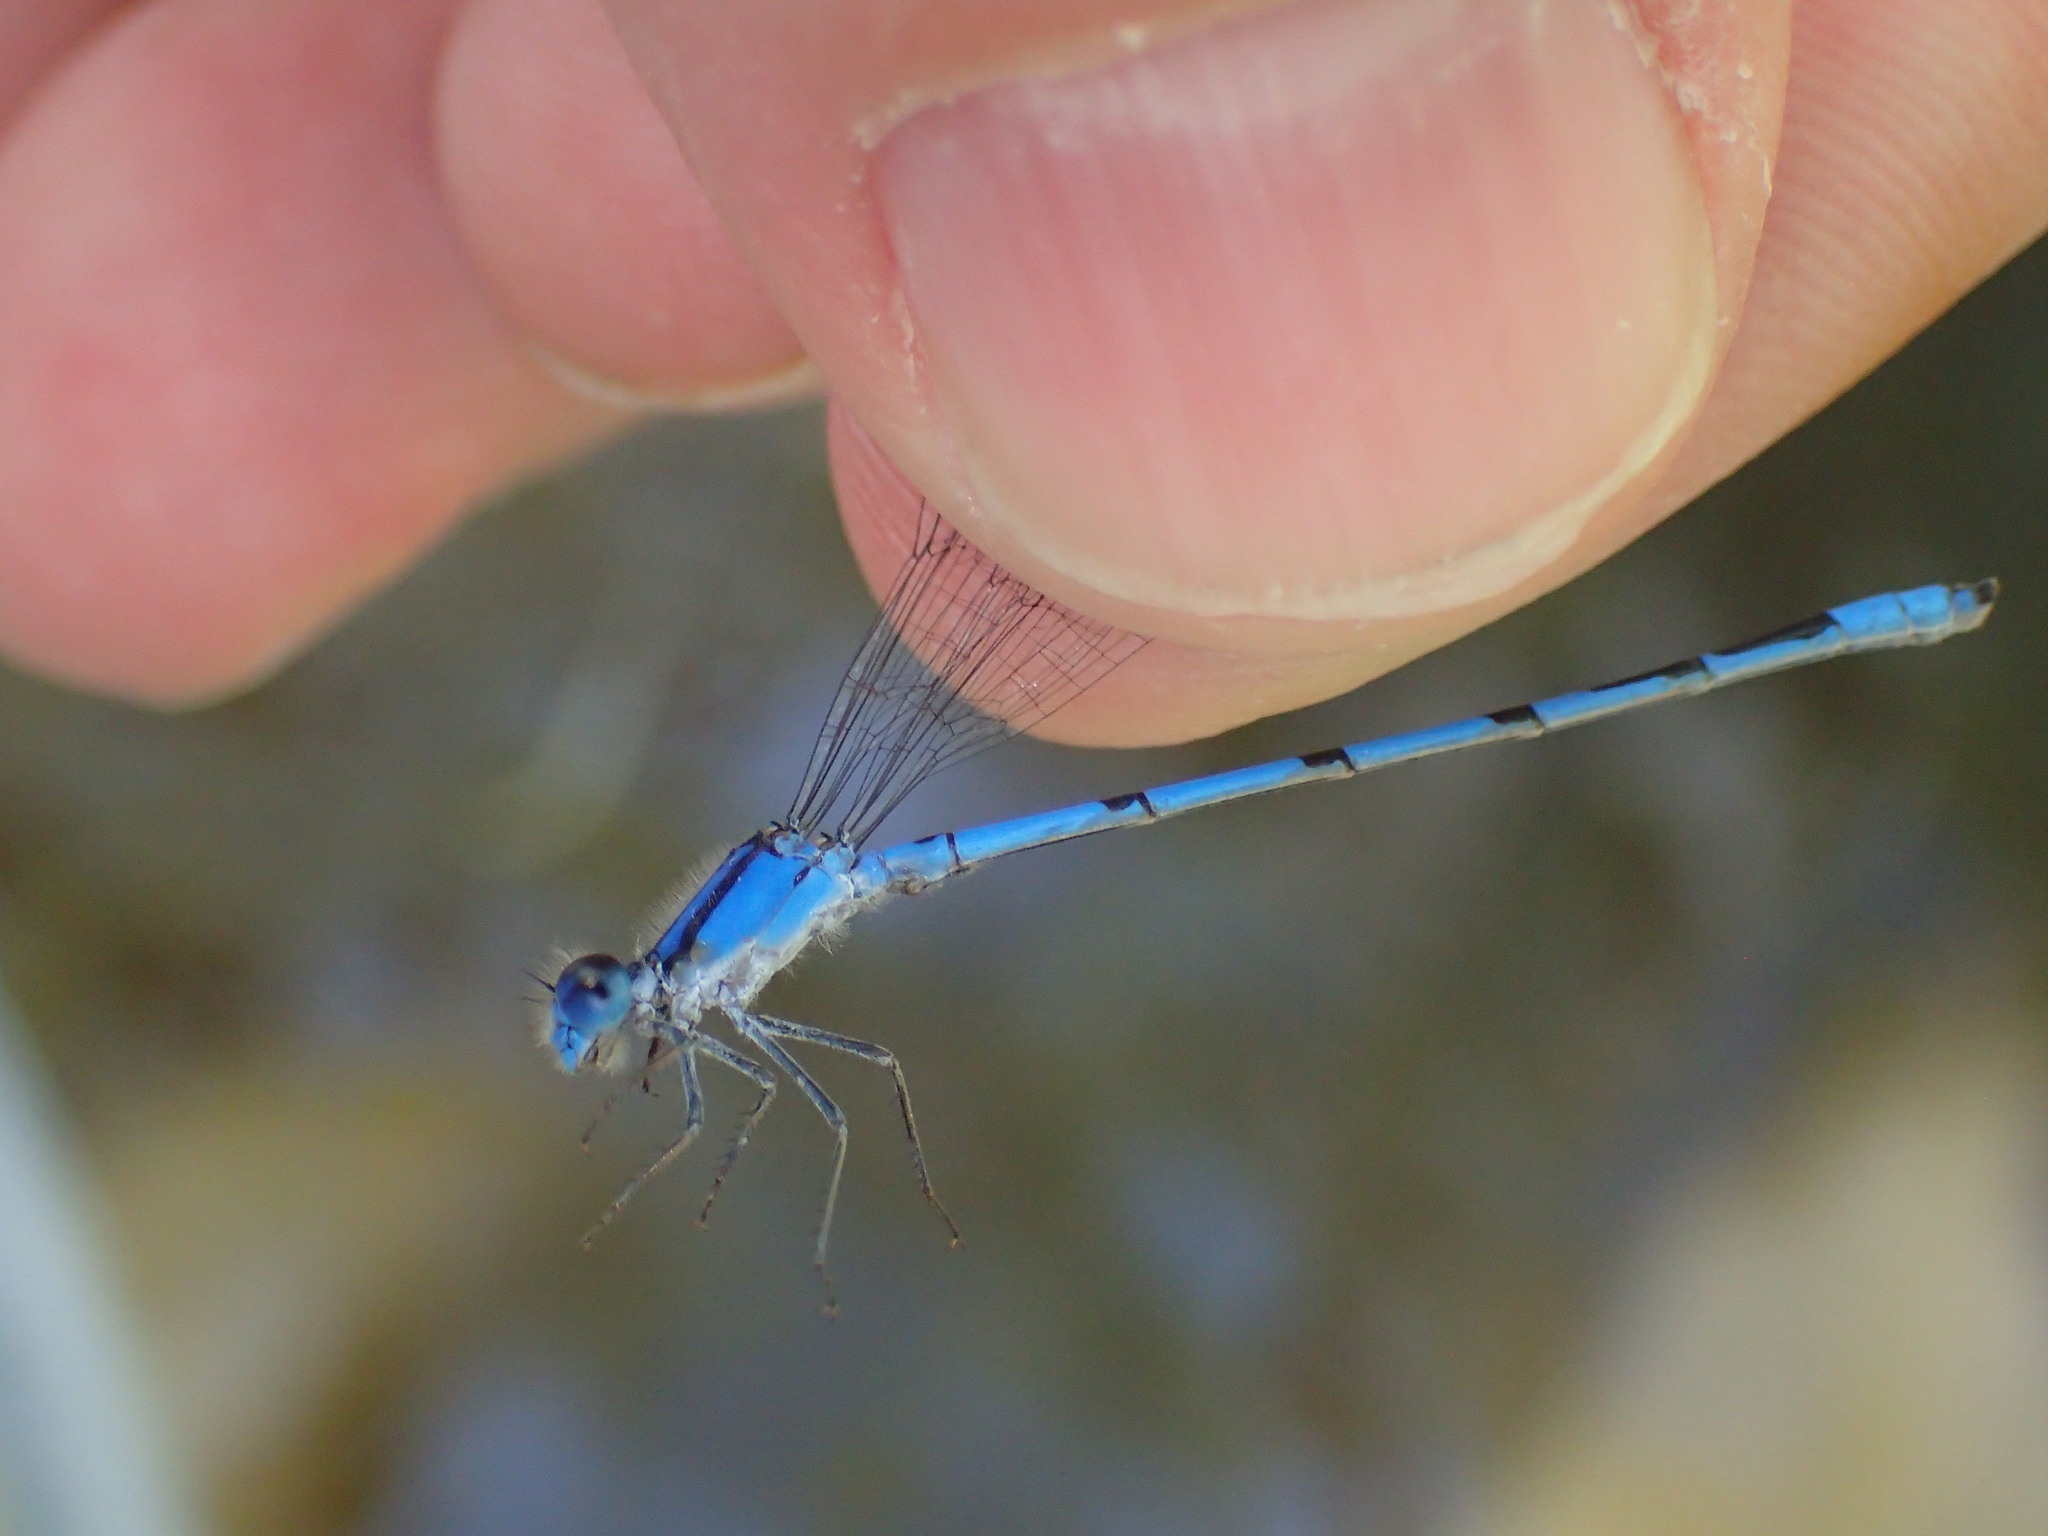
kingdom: Animalia
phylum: Arthropoda
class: Insecta
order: Odonata
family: Coenagrionidae
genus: Enallagma
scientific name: Enallagma civile
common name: Damselfly
